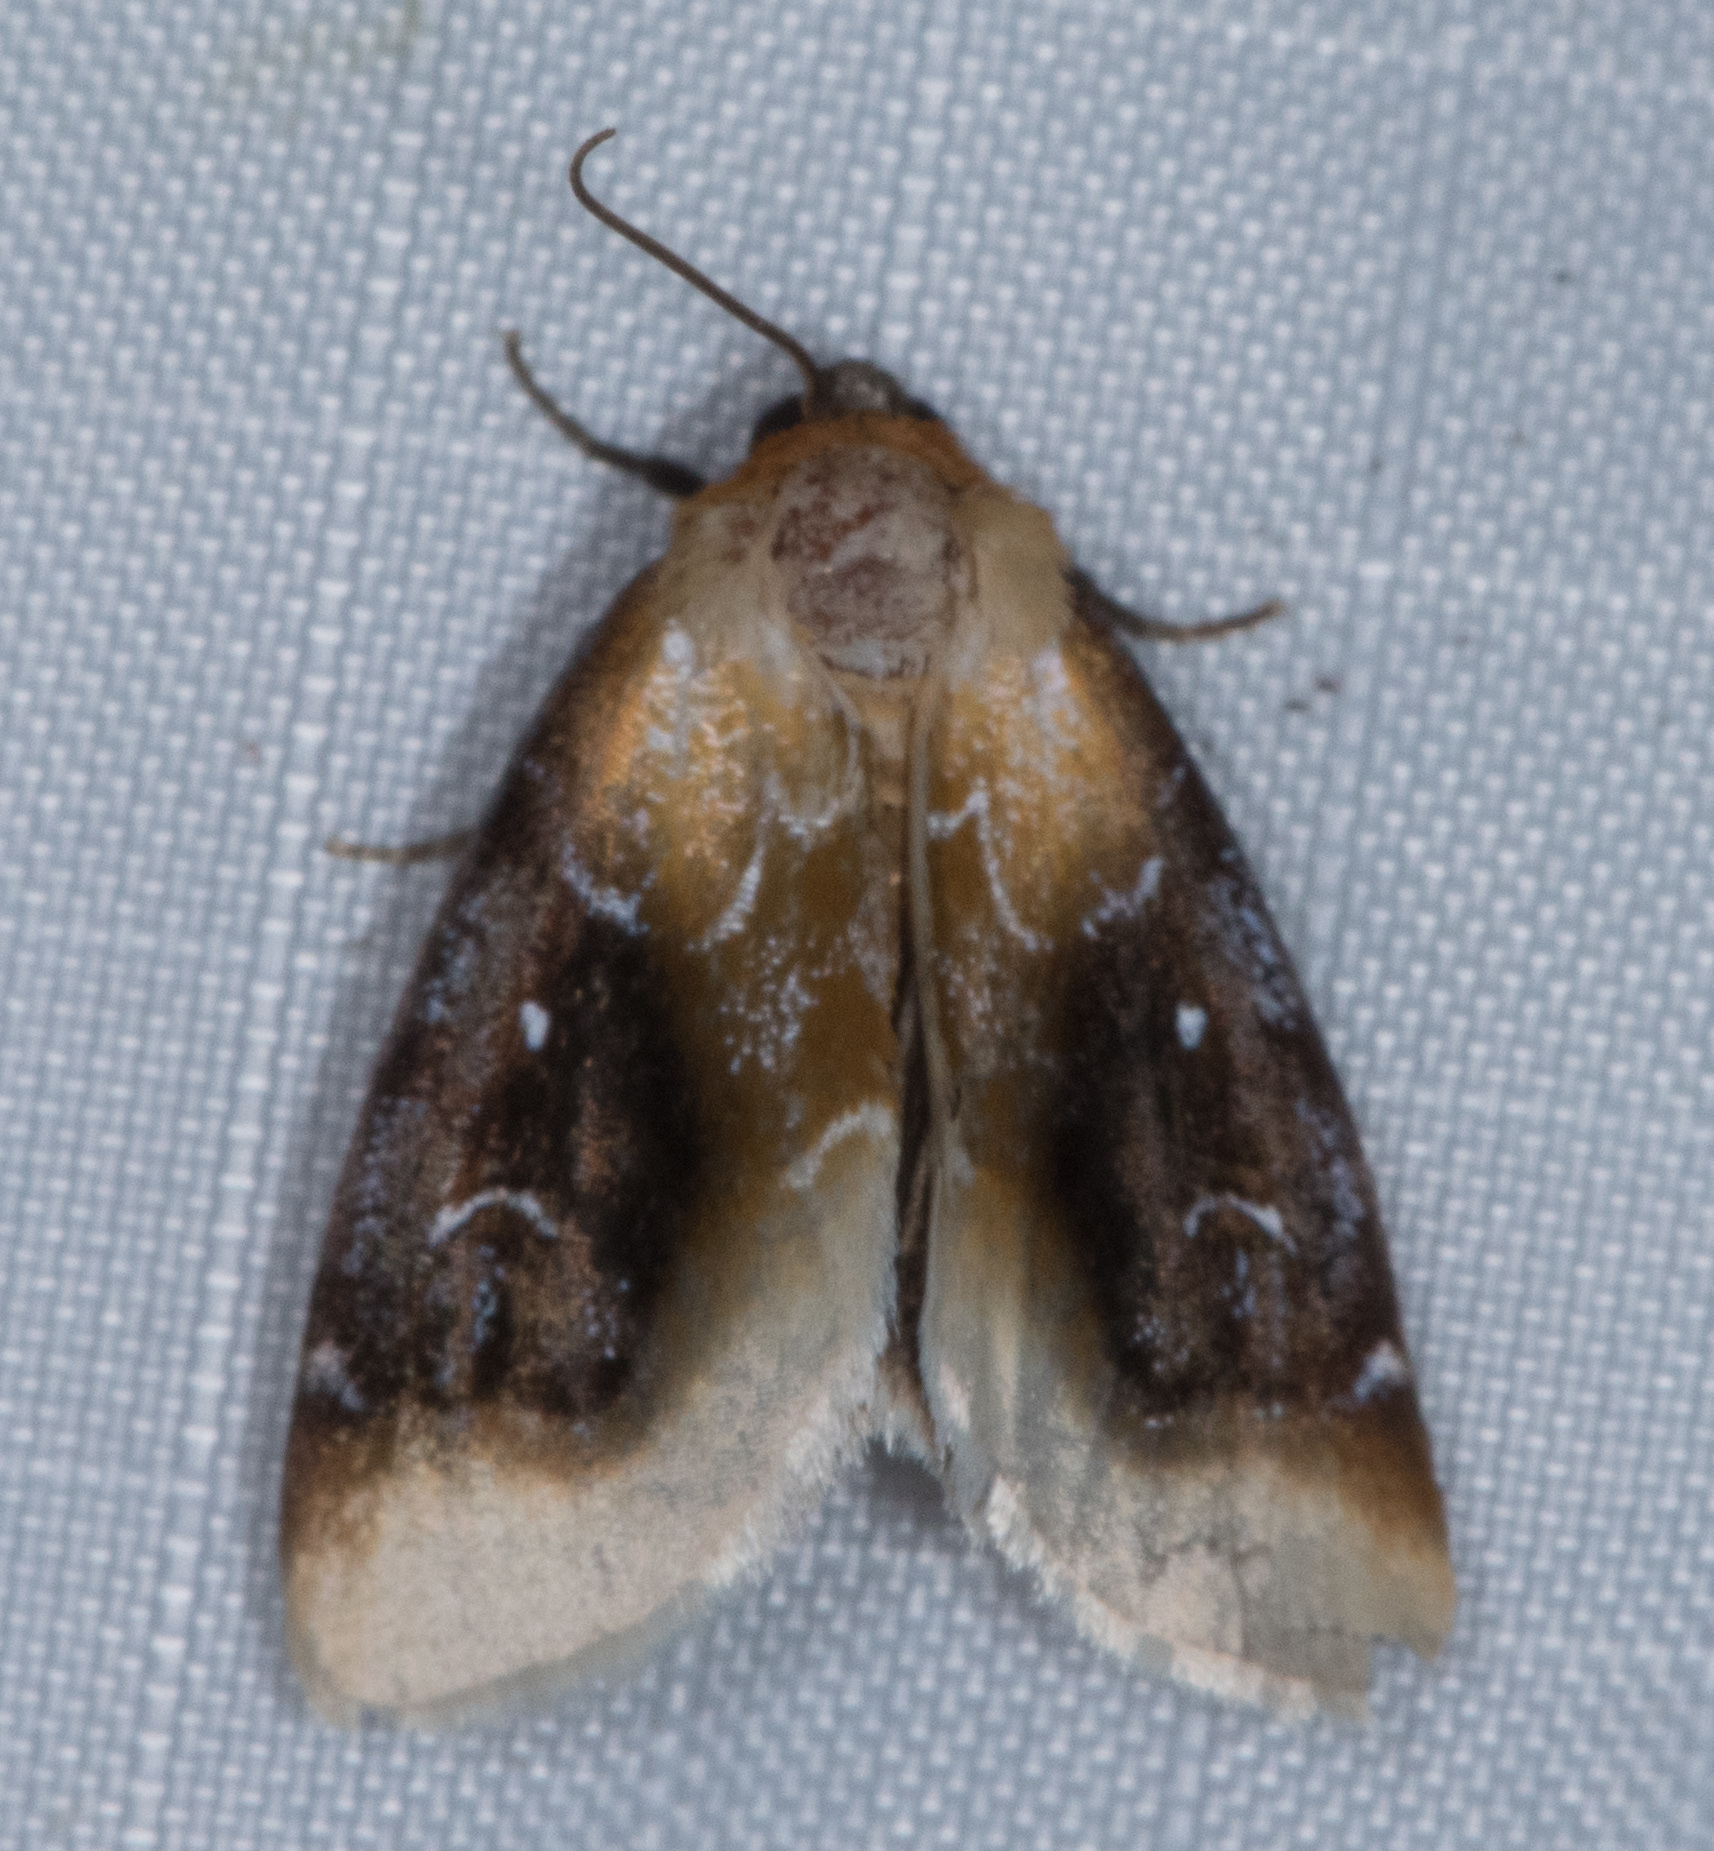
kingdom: Animalia
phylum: Arthropoda
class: Insecta
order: Lepidoptera
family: Noctuidae
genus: Chrysoecia
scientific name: Chrysoecia scira
